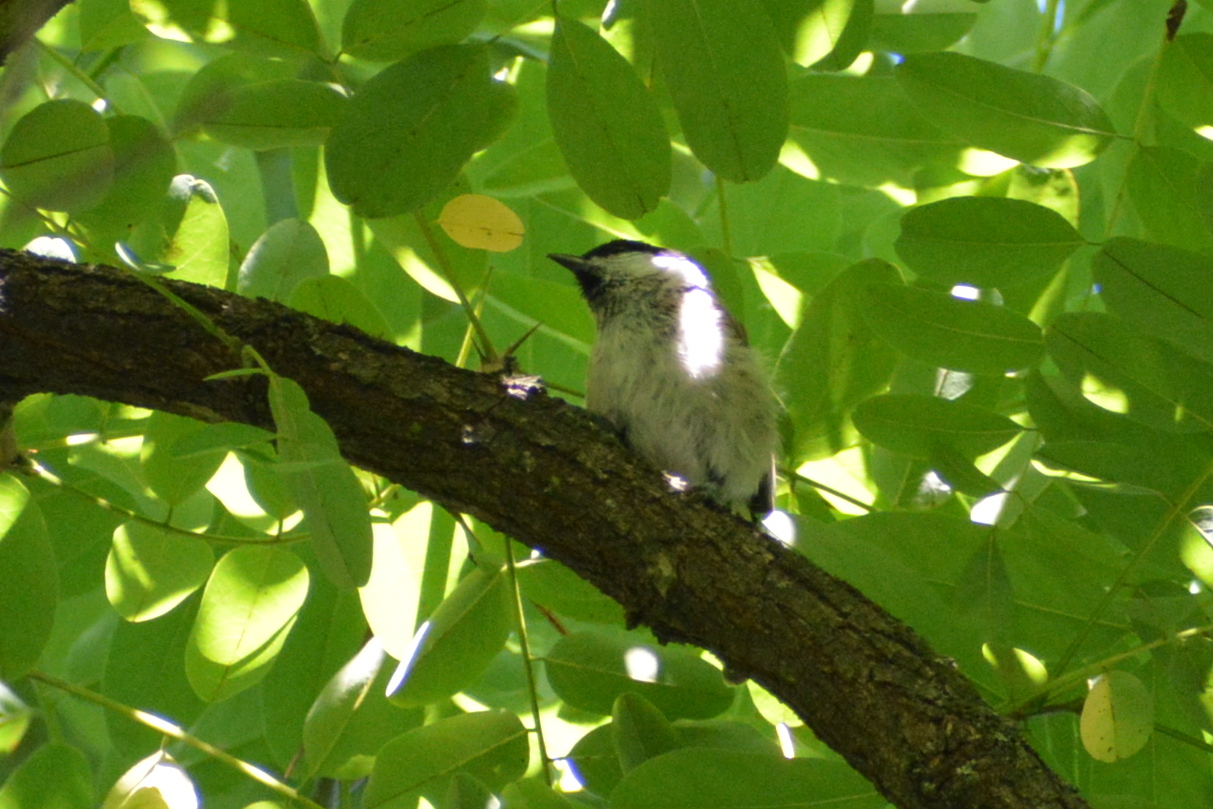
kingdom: Animalia
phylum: Chordata
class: Aves
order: Passeriformes
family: Paridae
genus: Poecile
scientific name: Poecile palustris
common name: Marsh tit
